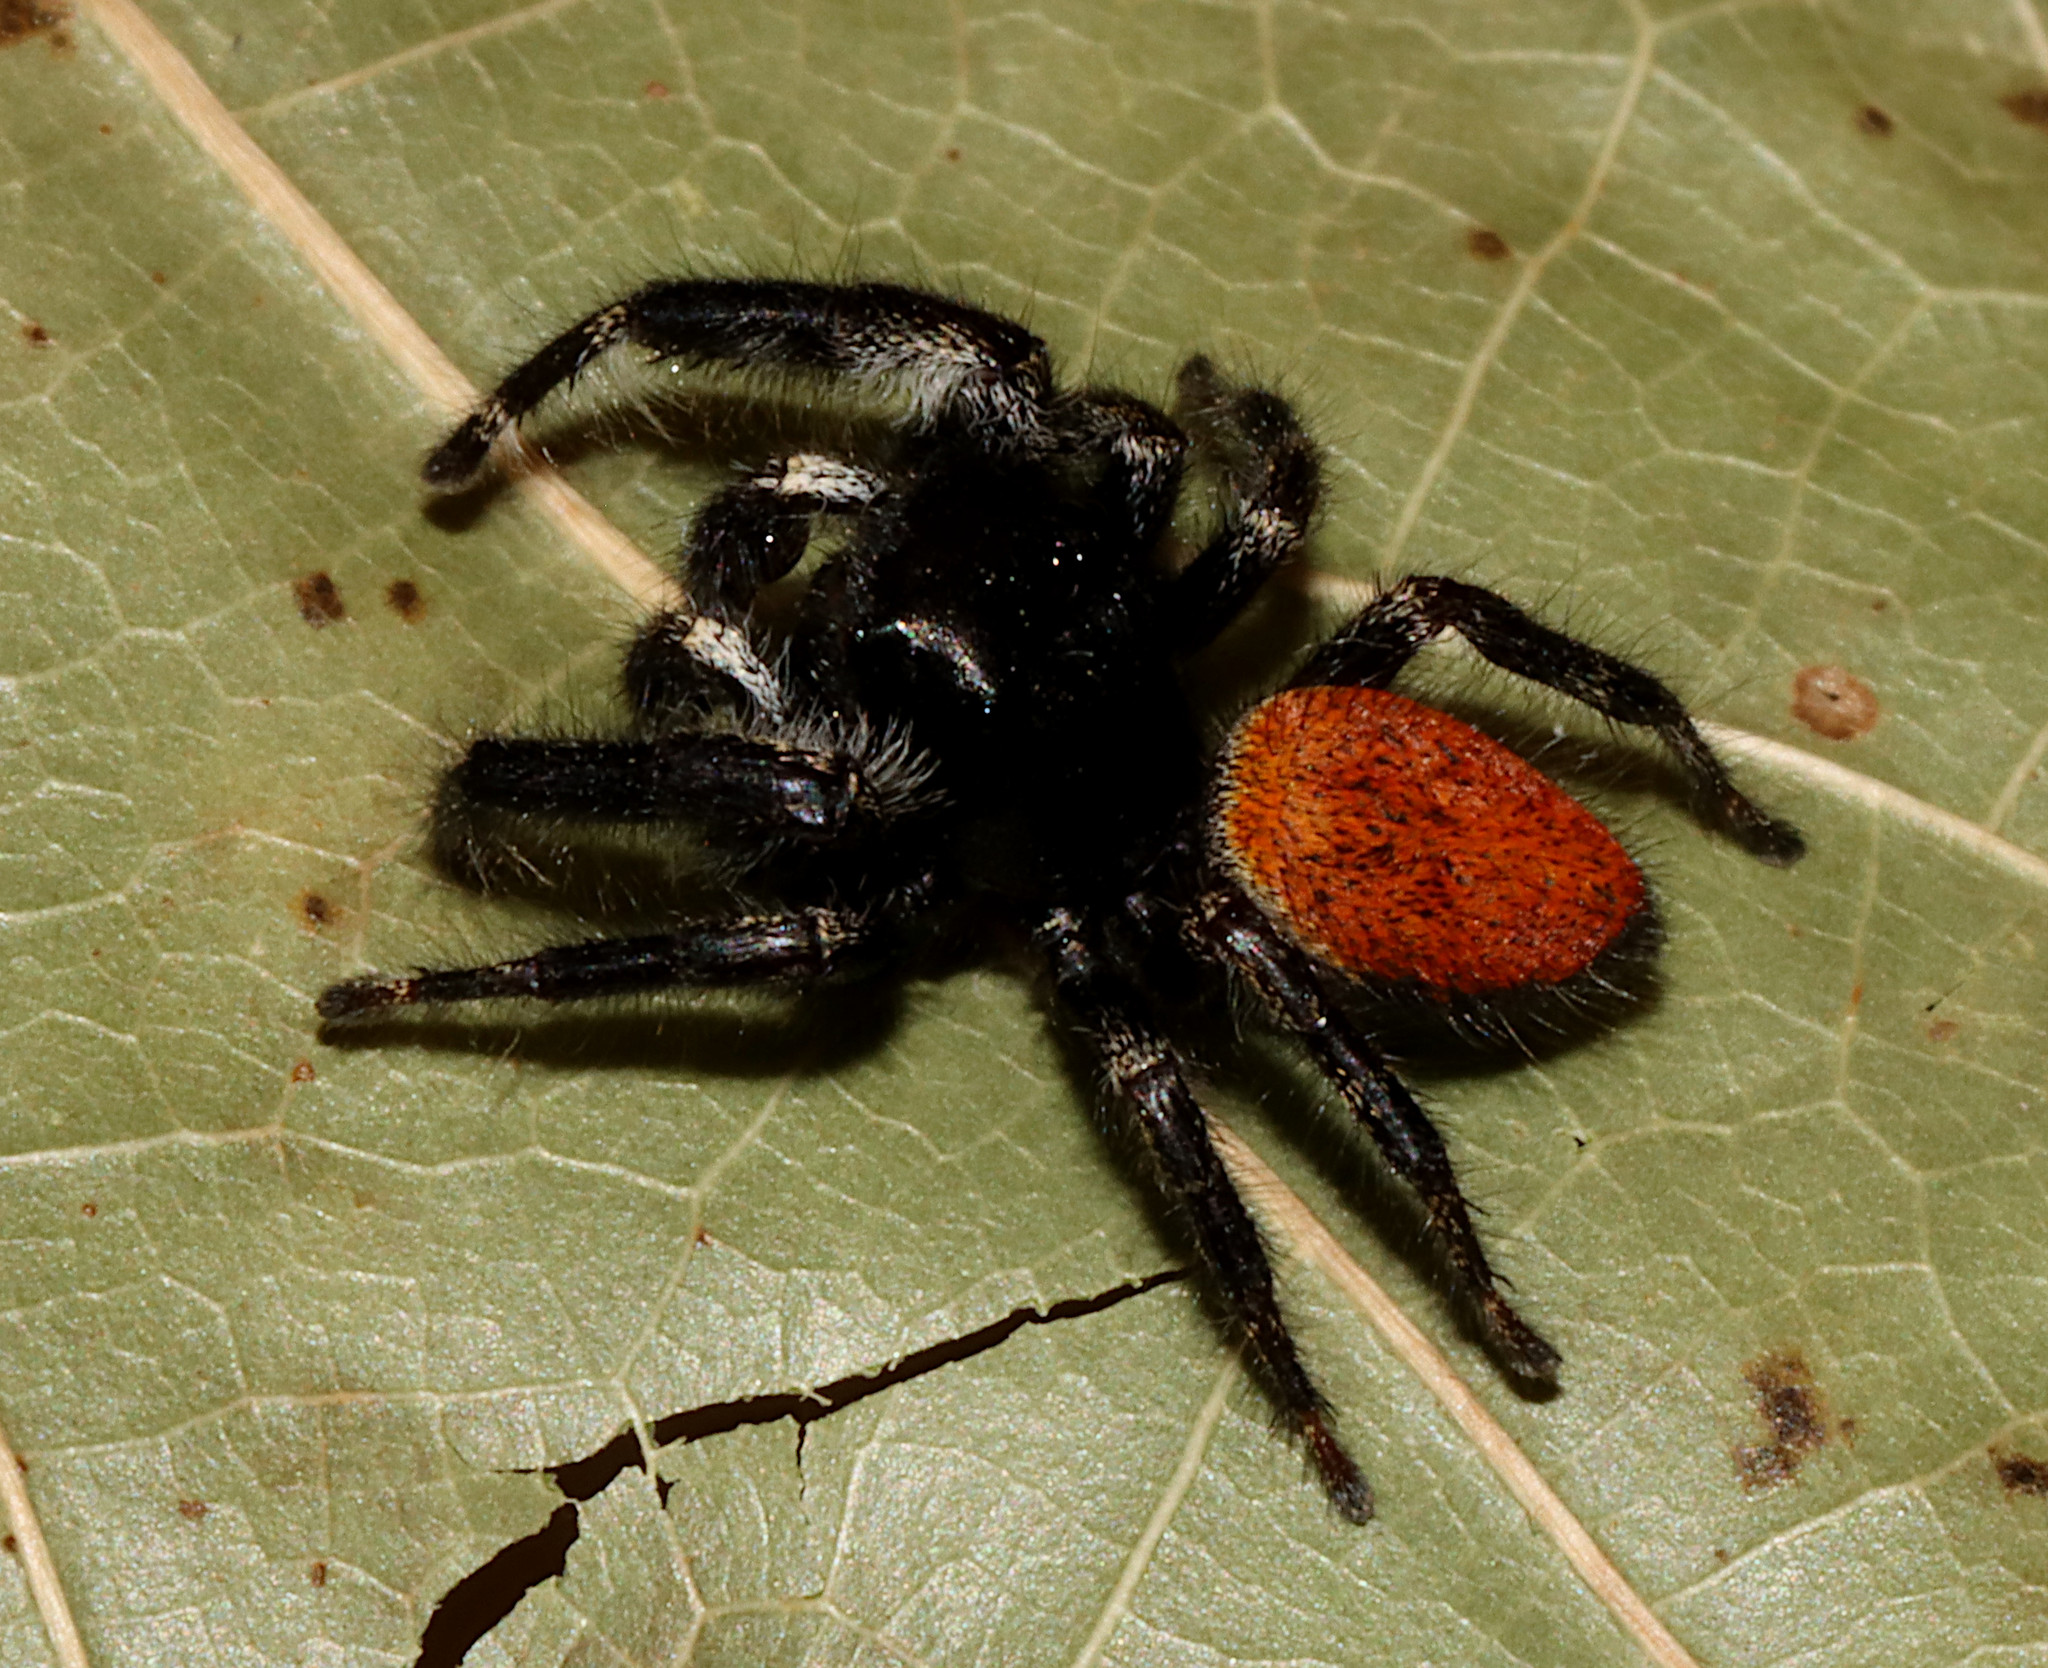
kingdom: Animalia
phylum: Arthropoda
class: Arachnida
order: Araneae
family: Salticidae
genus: Phidippus
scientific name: Phidippus princeps
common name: Grayish jumping spider
